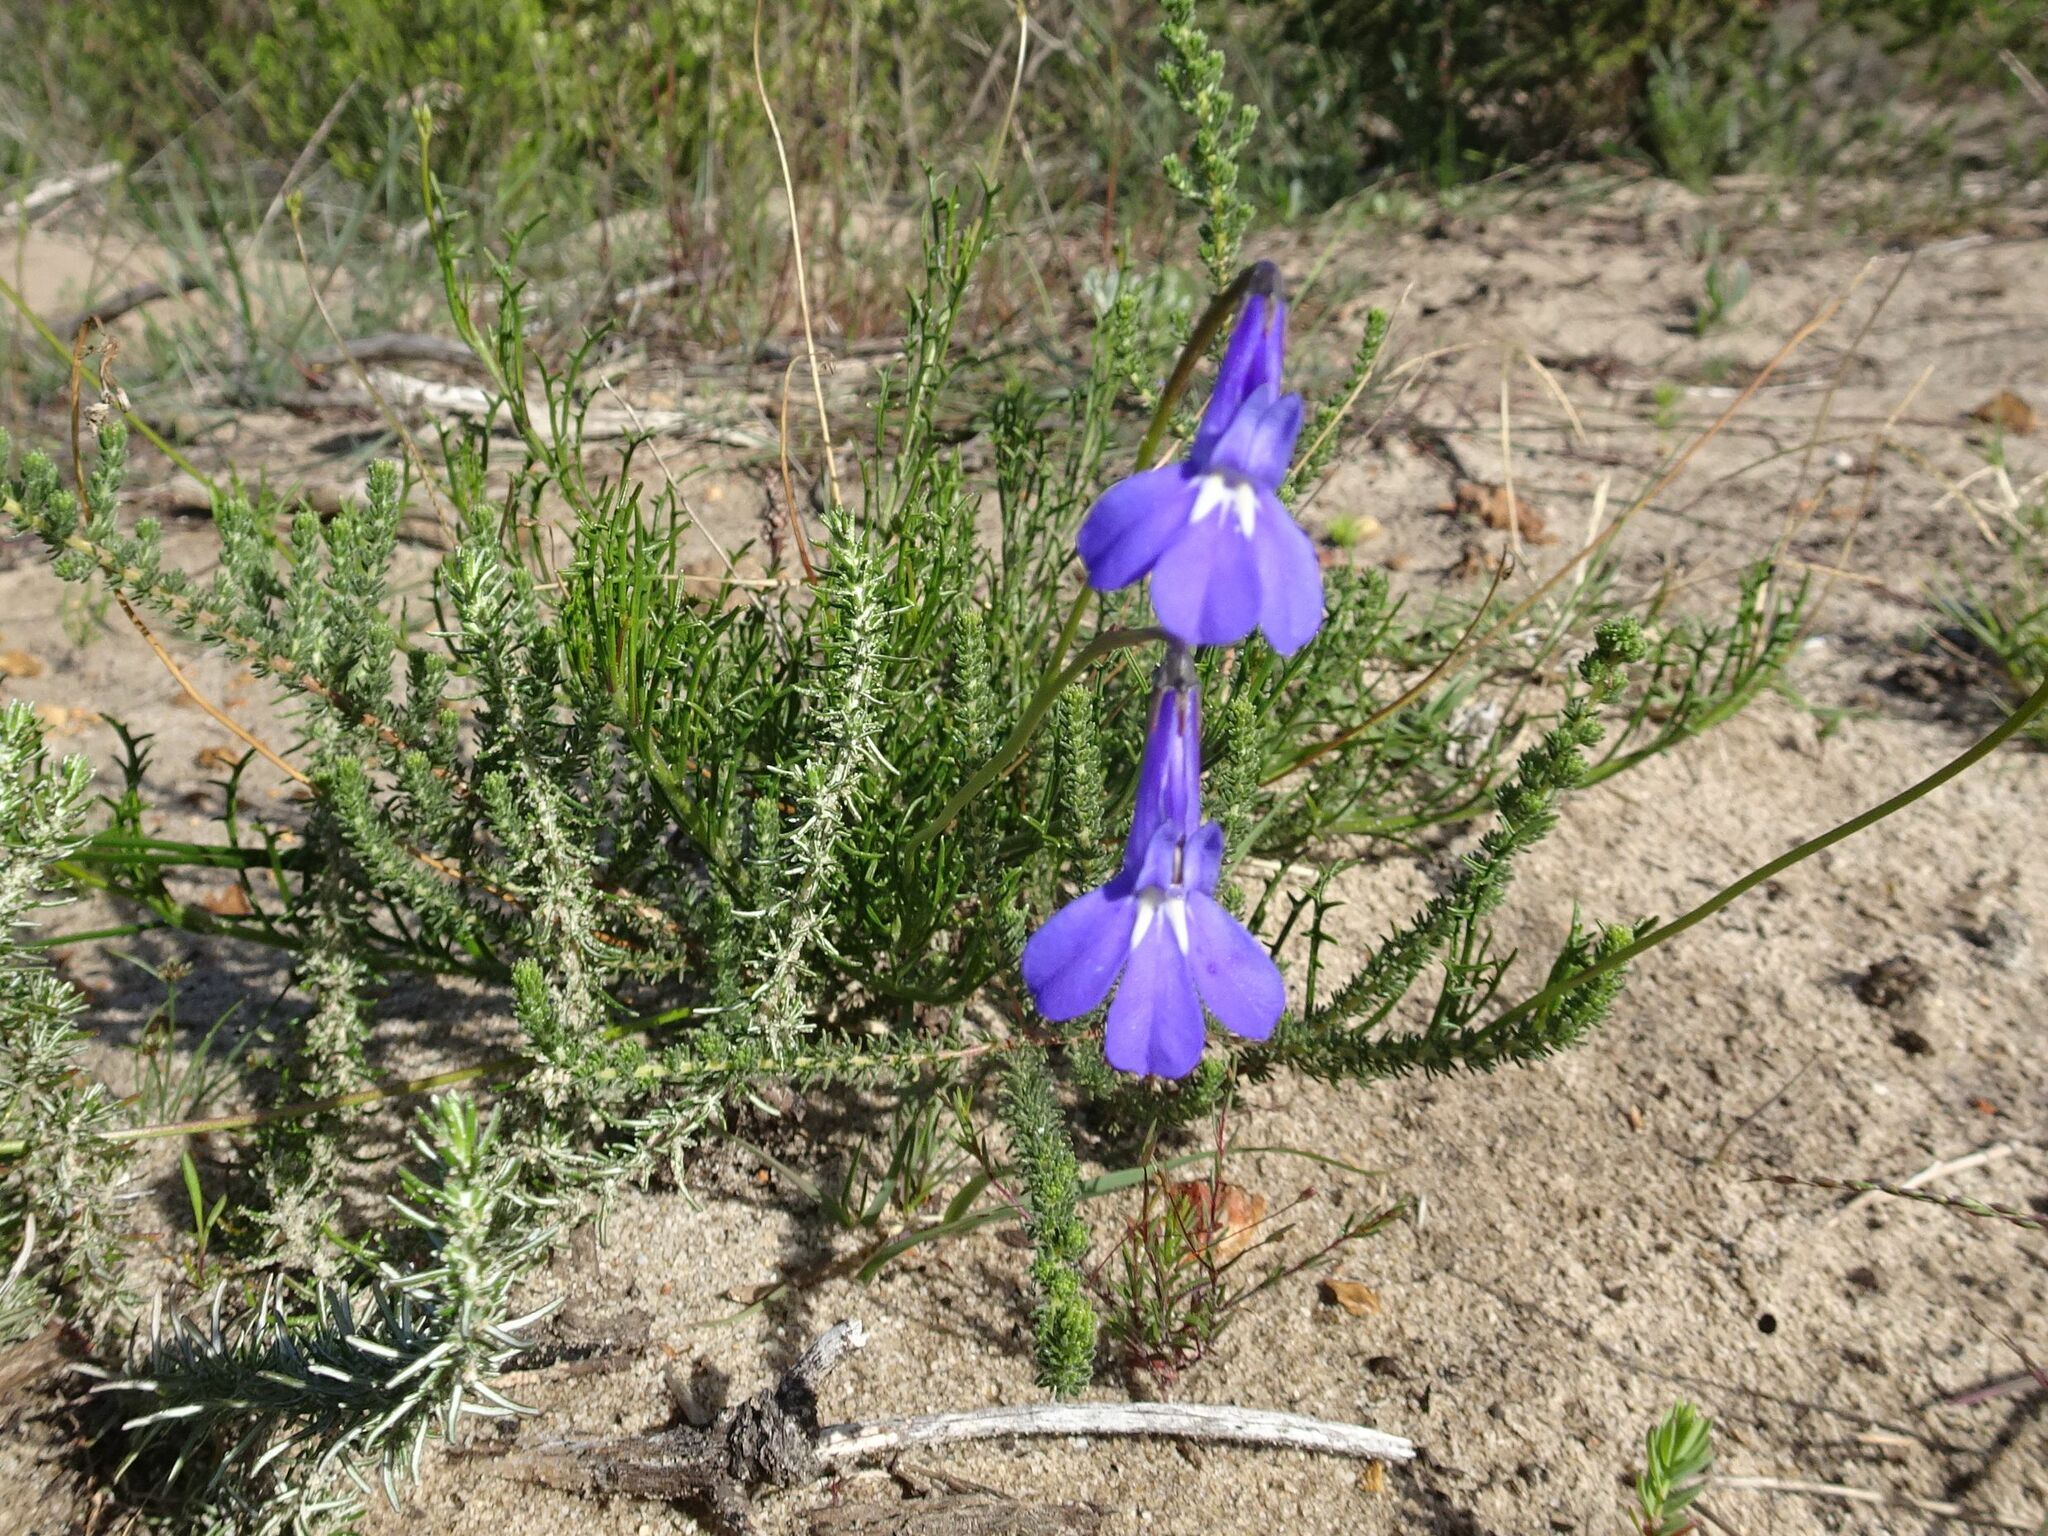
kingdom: Plantae
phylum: Tracheophyta
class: Magnoliopsida
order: Asterales
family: Campanulaceae
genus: Lobelia
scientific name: Lobelia coronopifolia
